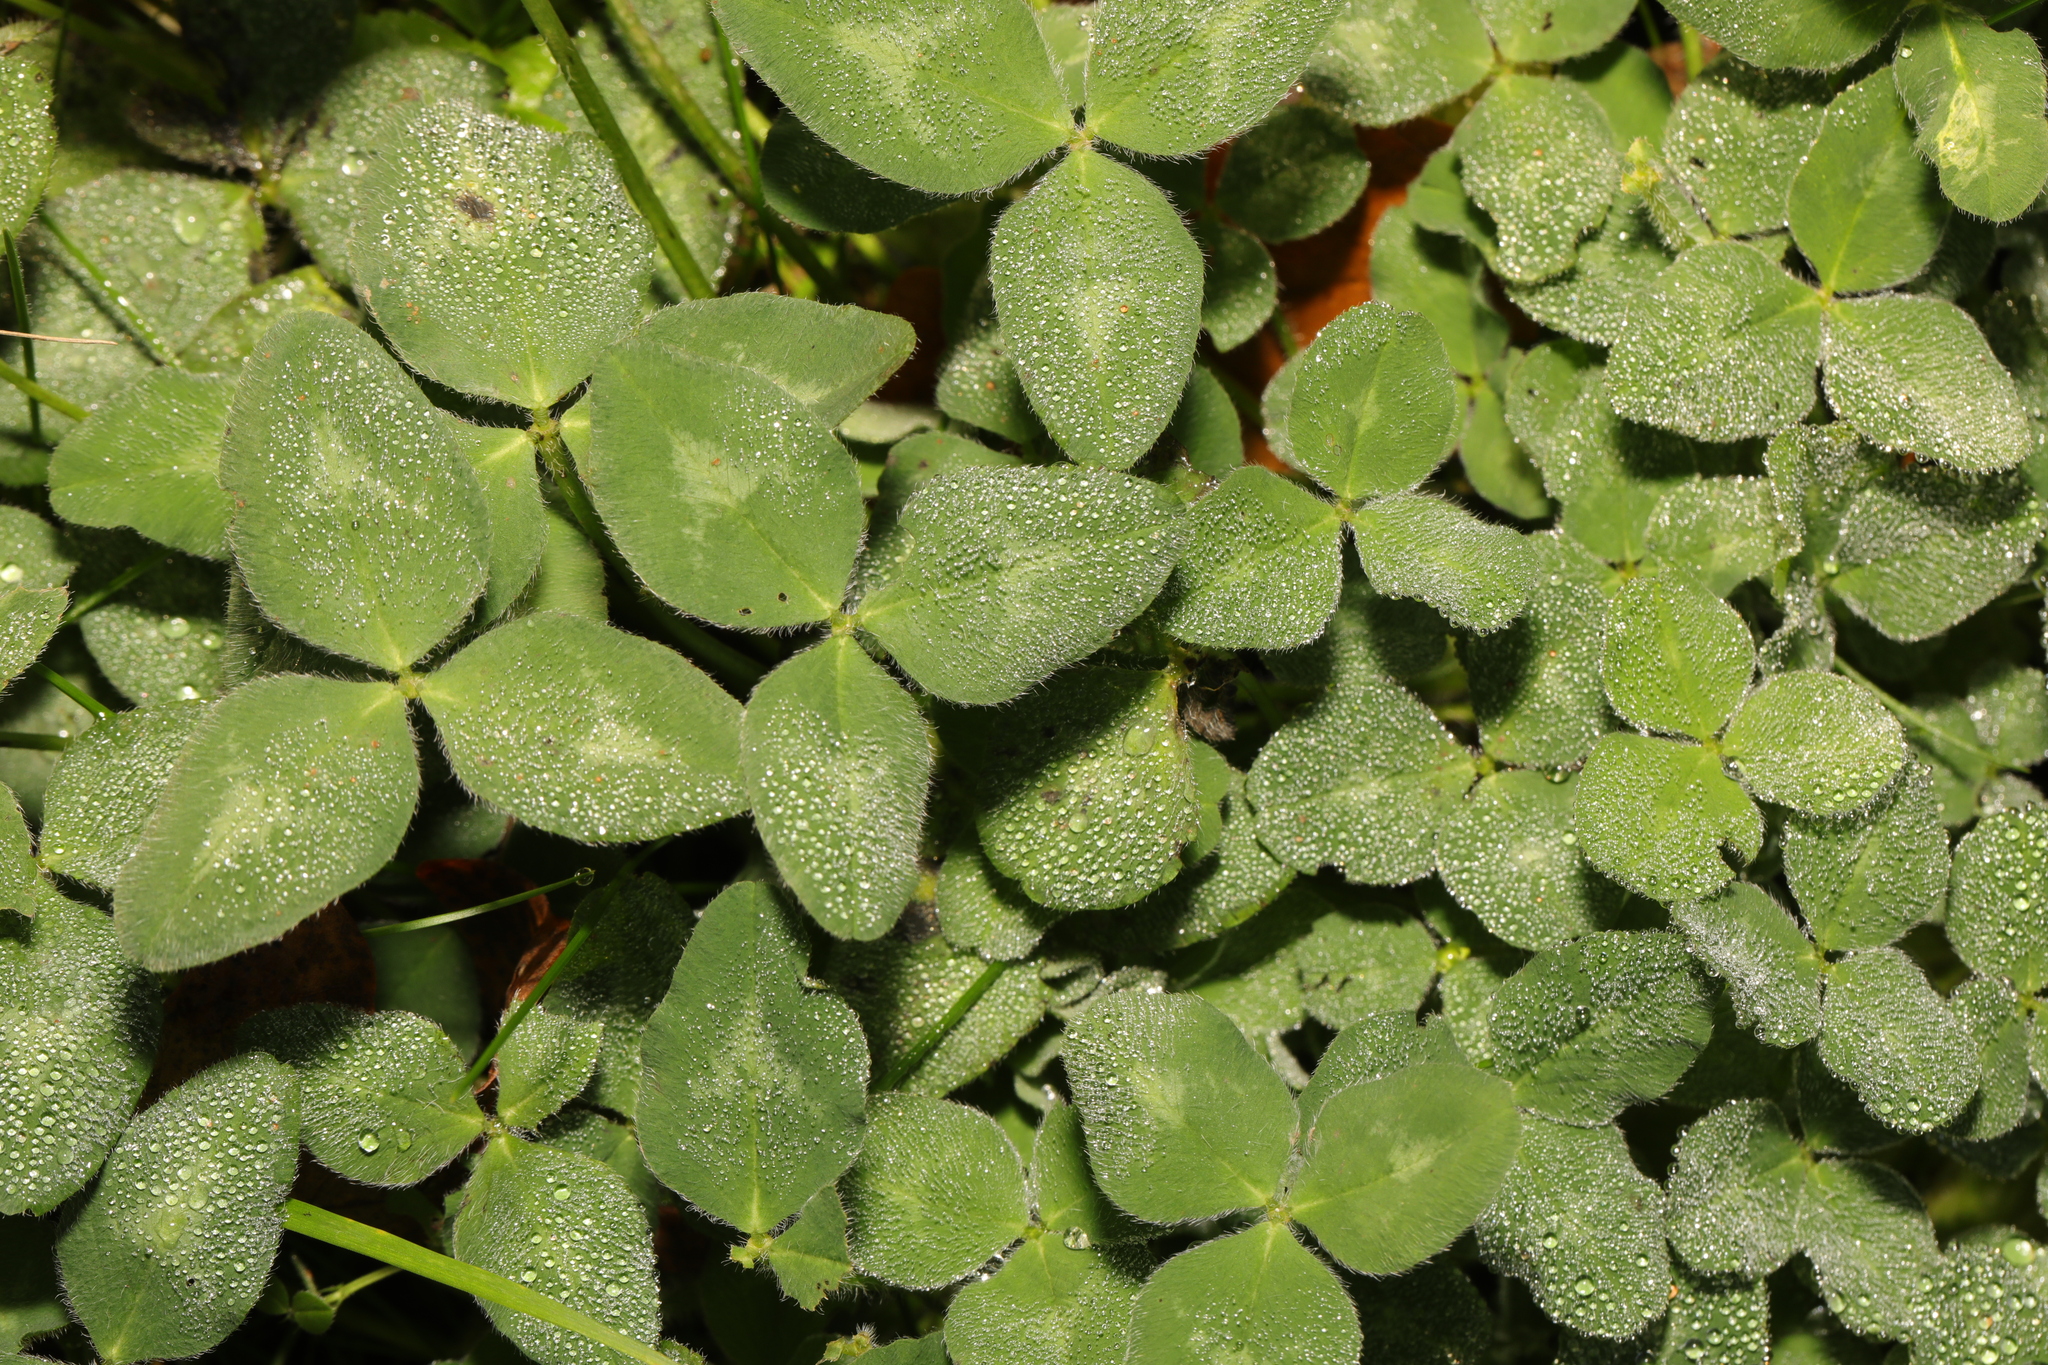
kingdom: Plantae
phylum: Tracheophyta
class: Magnoliopsida
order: Fabales
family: Fabaceae
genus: Trifolium
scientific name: Trifolium pratense
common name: Red clover
